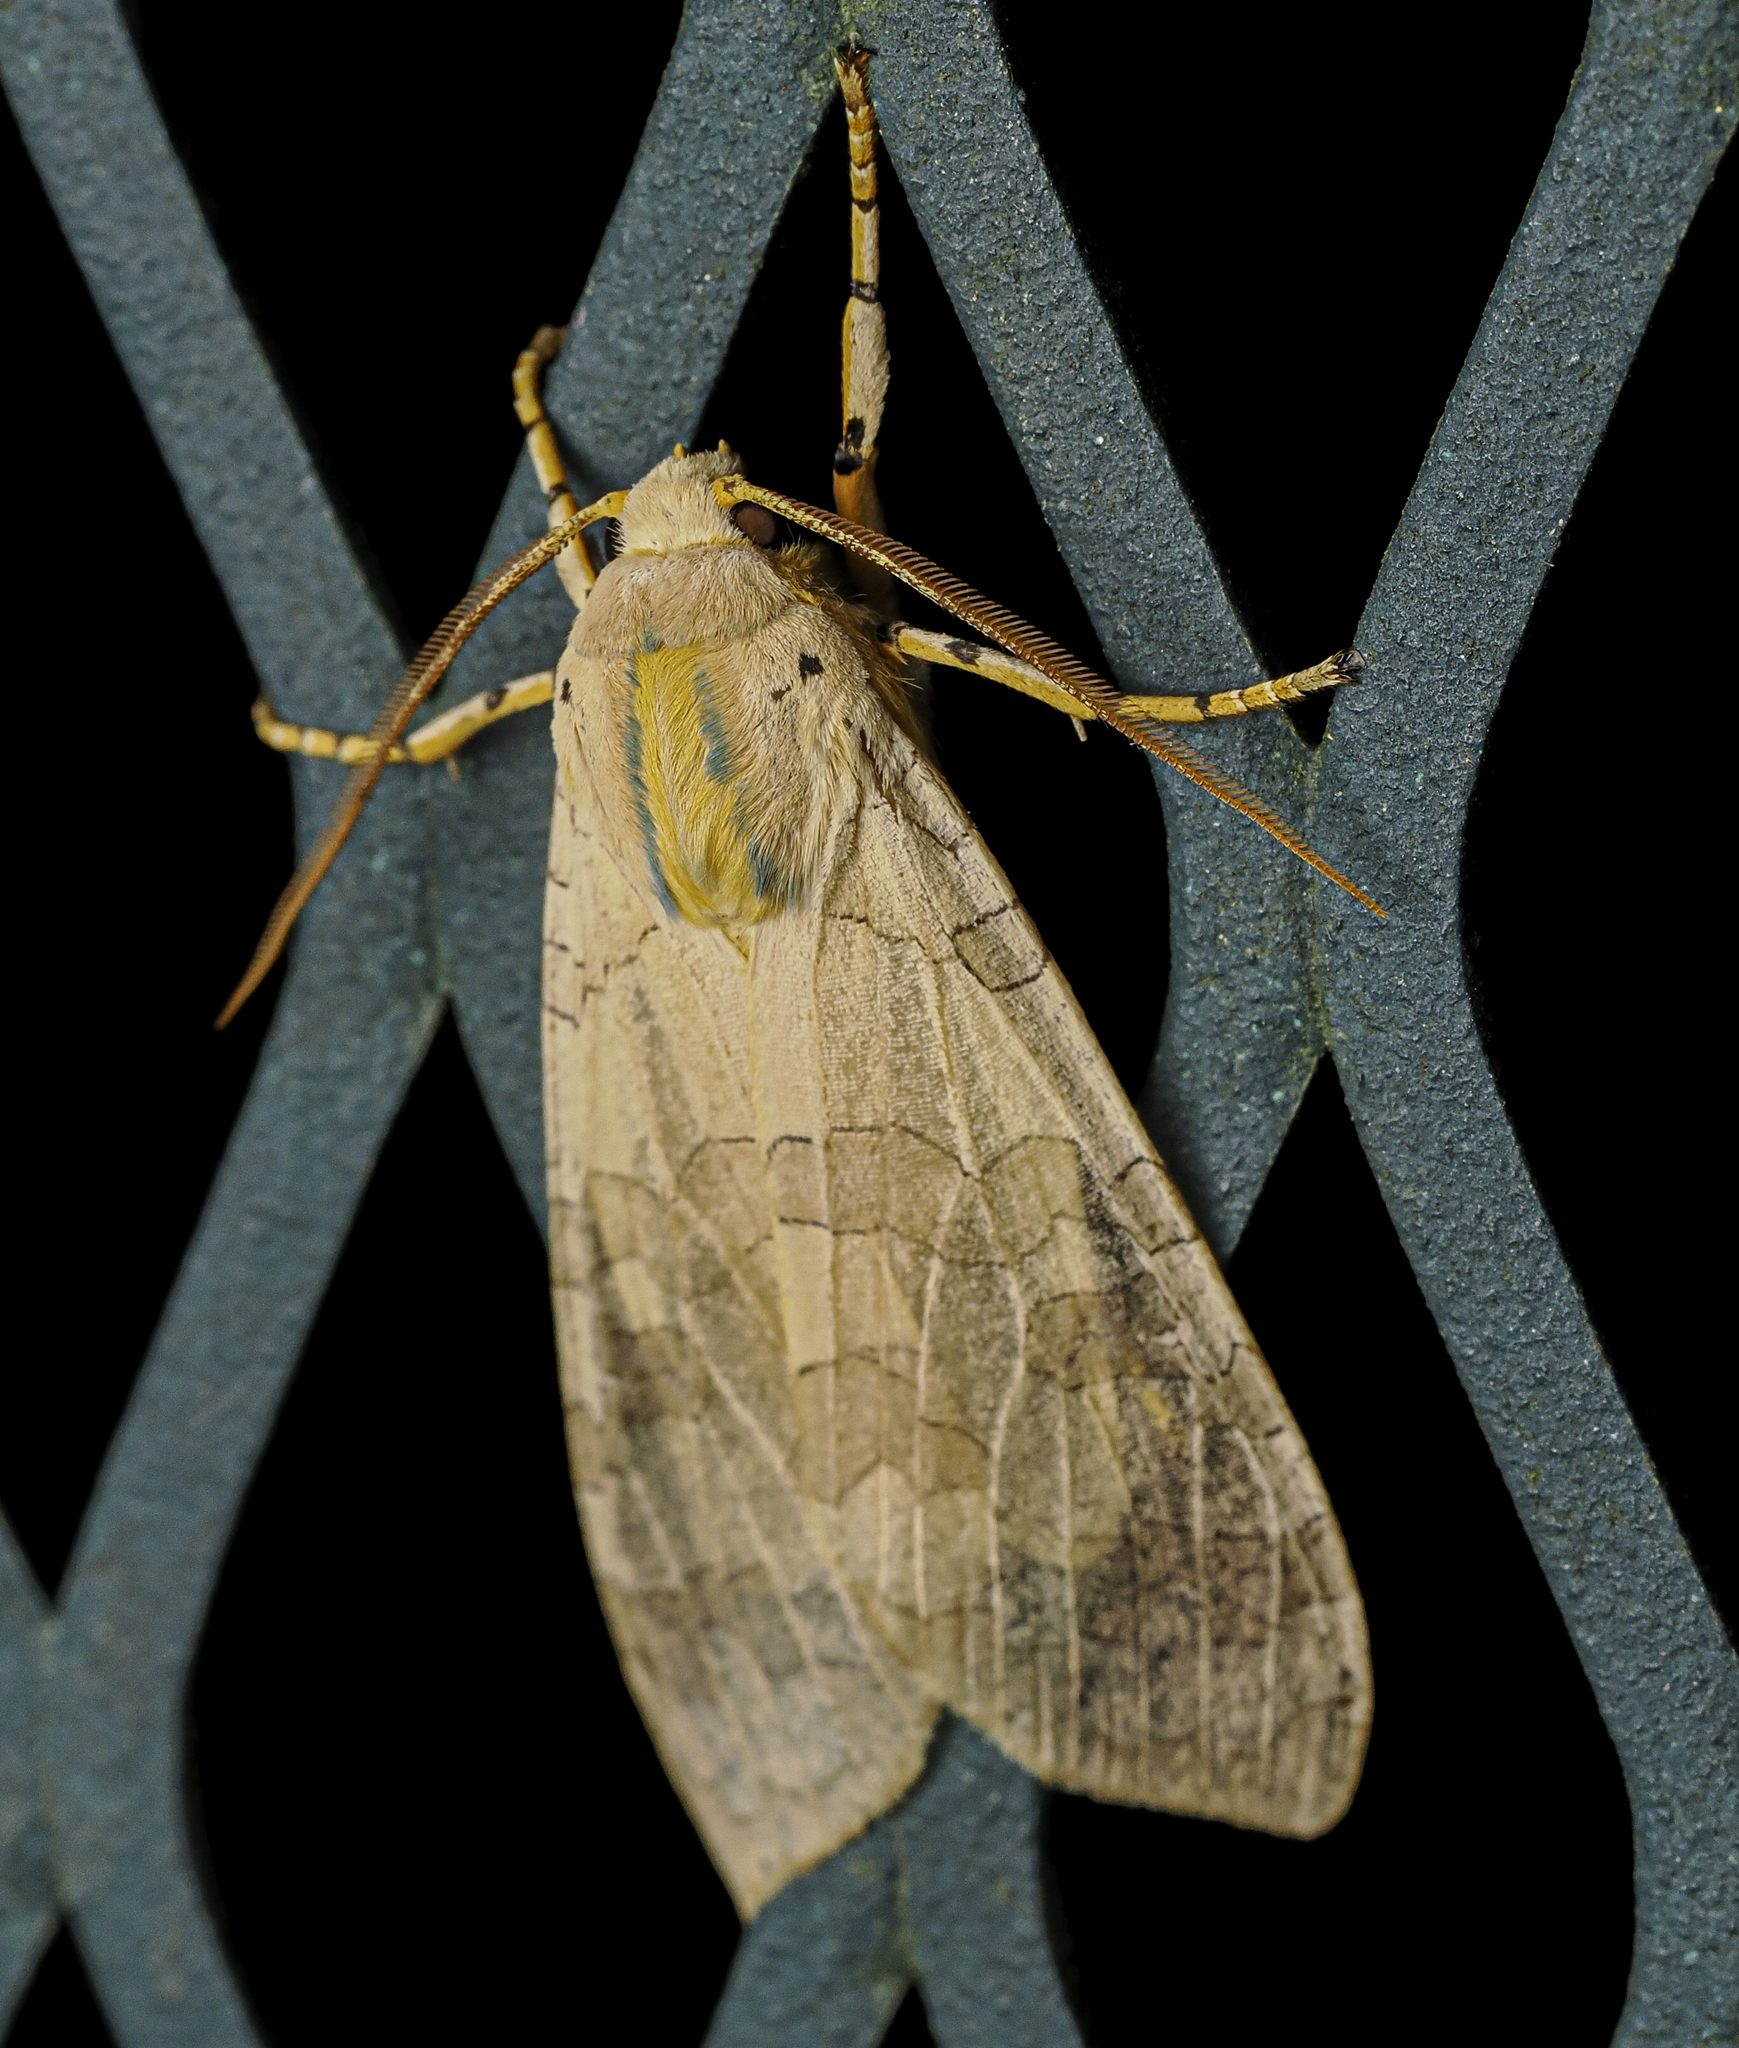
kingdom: Animalia
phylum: Arthropoda
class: Insecta
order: Lepidoptera
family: Erebidae
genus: Halysidota
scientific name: Halysidota
